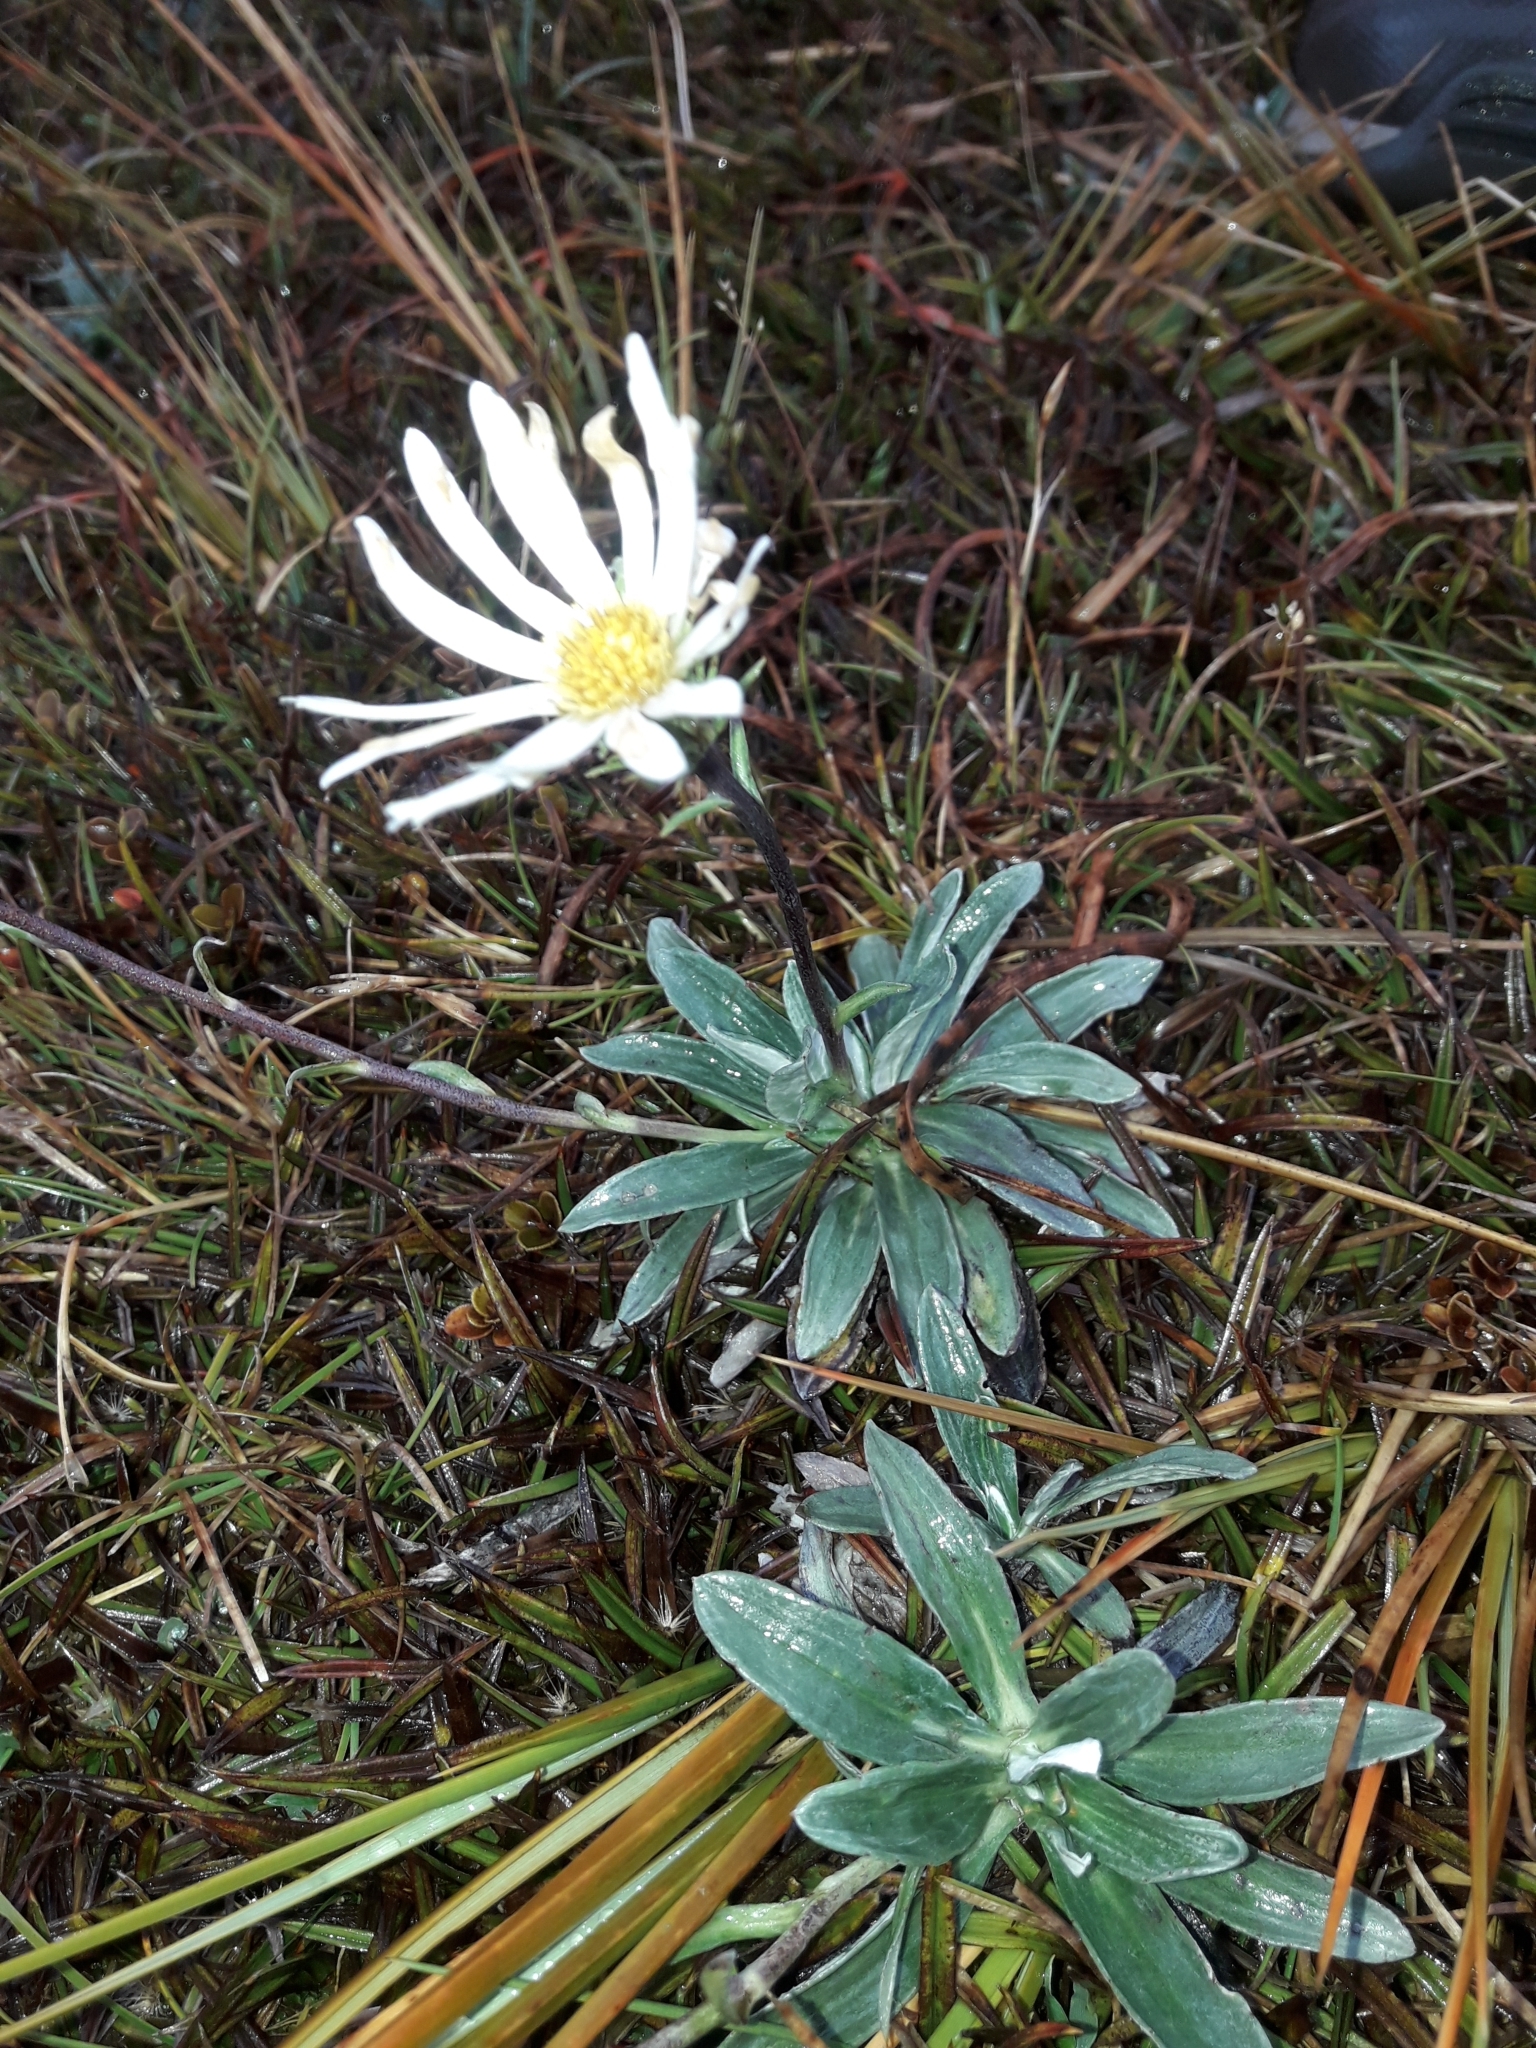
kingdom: Plantae
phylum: Tracheophyta
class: Magnoliopsida
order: Asterales
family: Asteraceae
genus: Celmisia
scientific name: Celmisia durietzii
